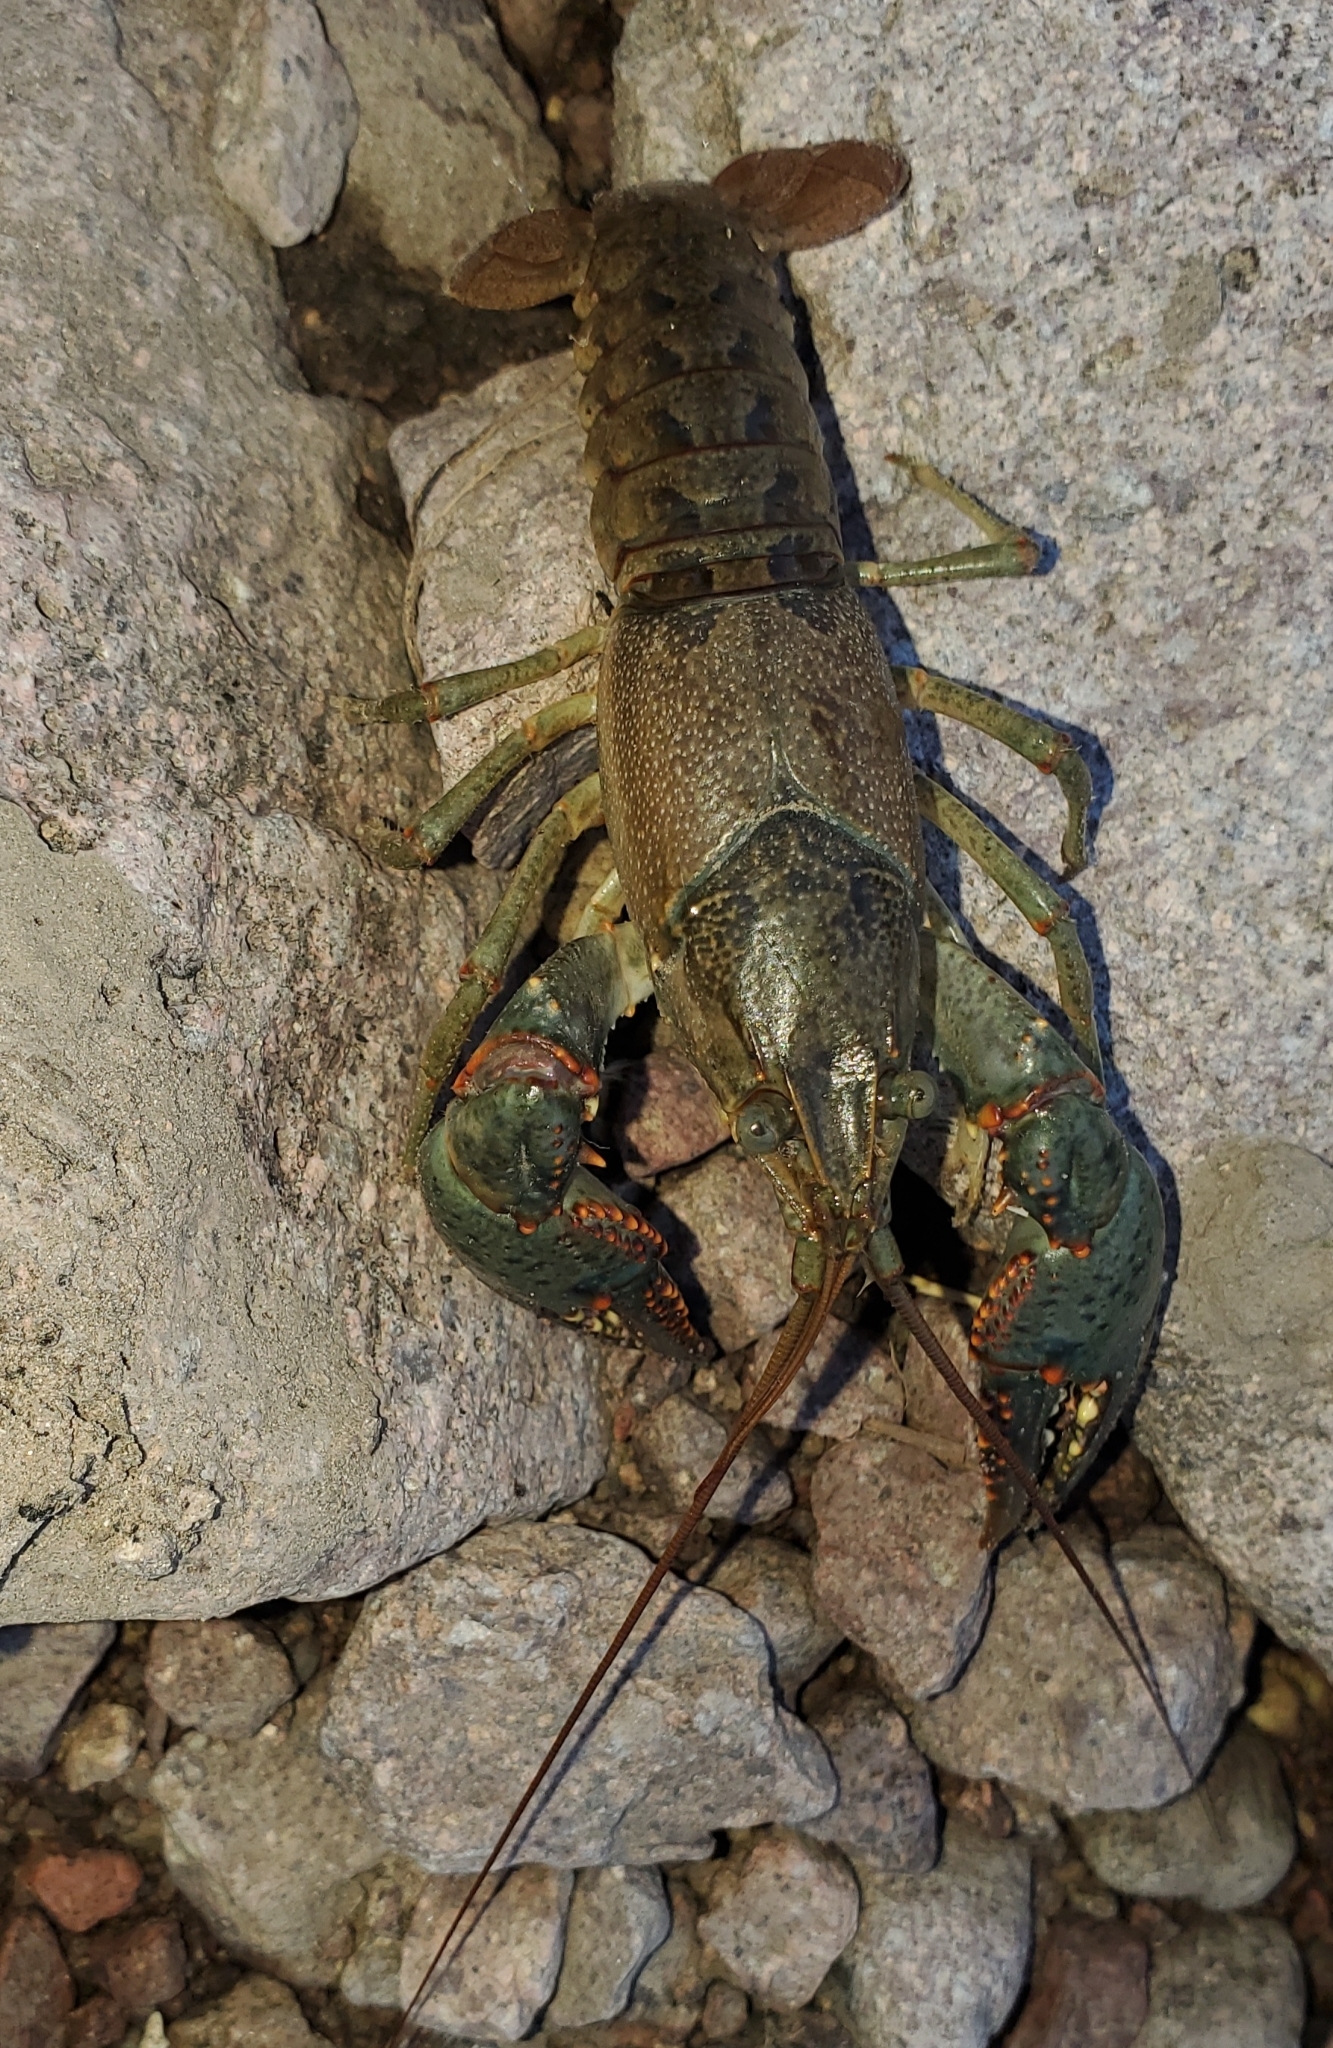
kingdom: Animalia
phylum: Arthropoda
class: Malacostraca
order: Decapoda
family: Cambaridae
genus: Faxonius
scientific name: Faxonius virilis
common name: Virile crayfish
